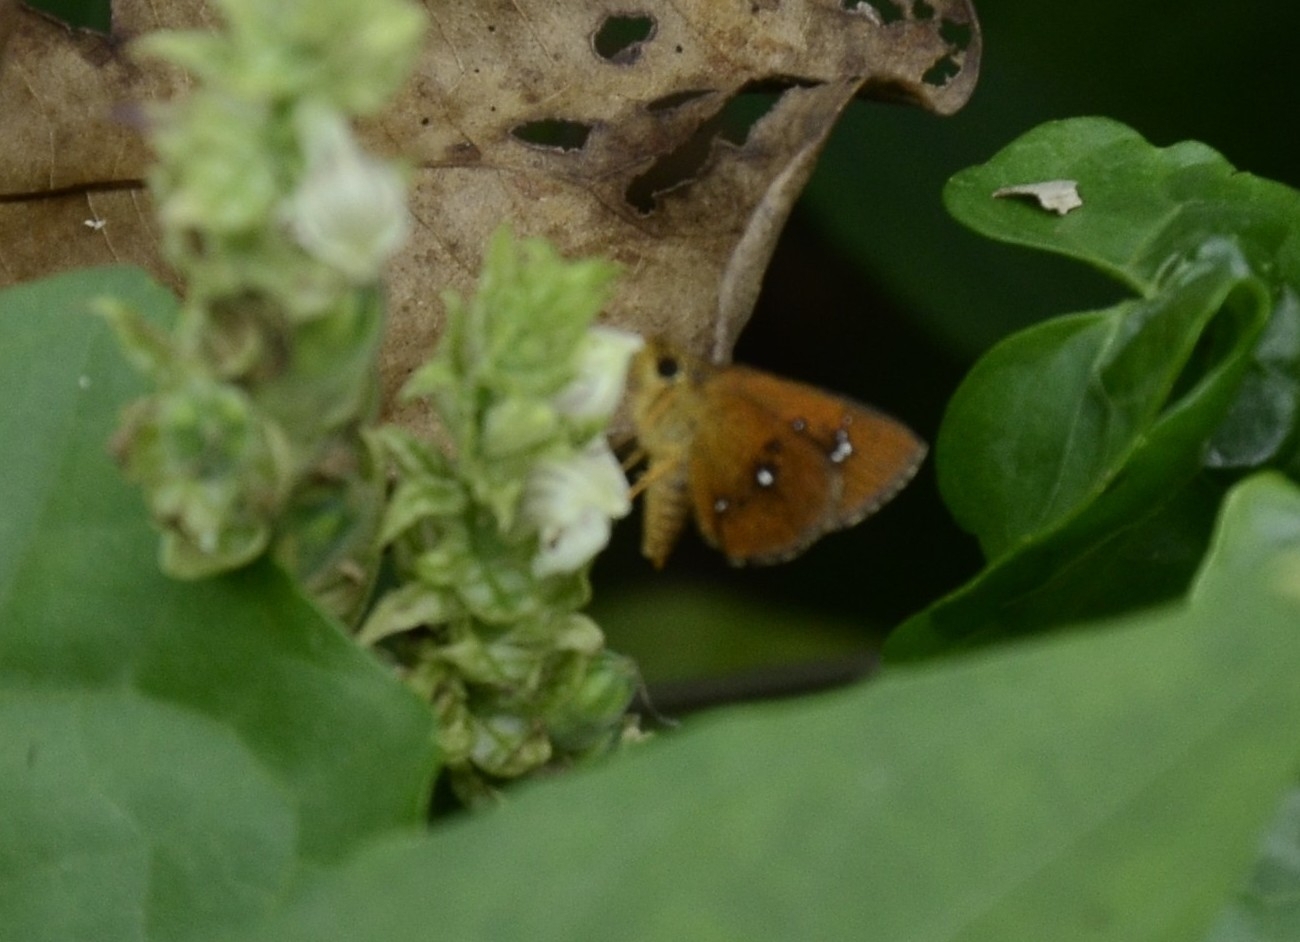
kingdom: Animalia
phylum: Arthropoda
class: Insecta
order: Lepidoptera
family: Hesperiidae
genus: Iambrix
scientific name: Iambrix salsala
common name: Chestnut bob
